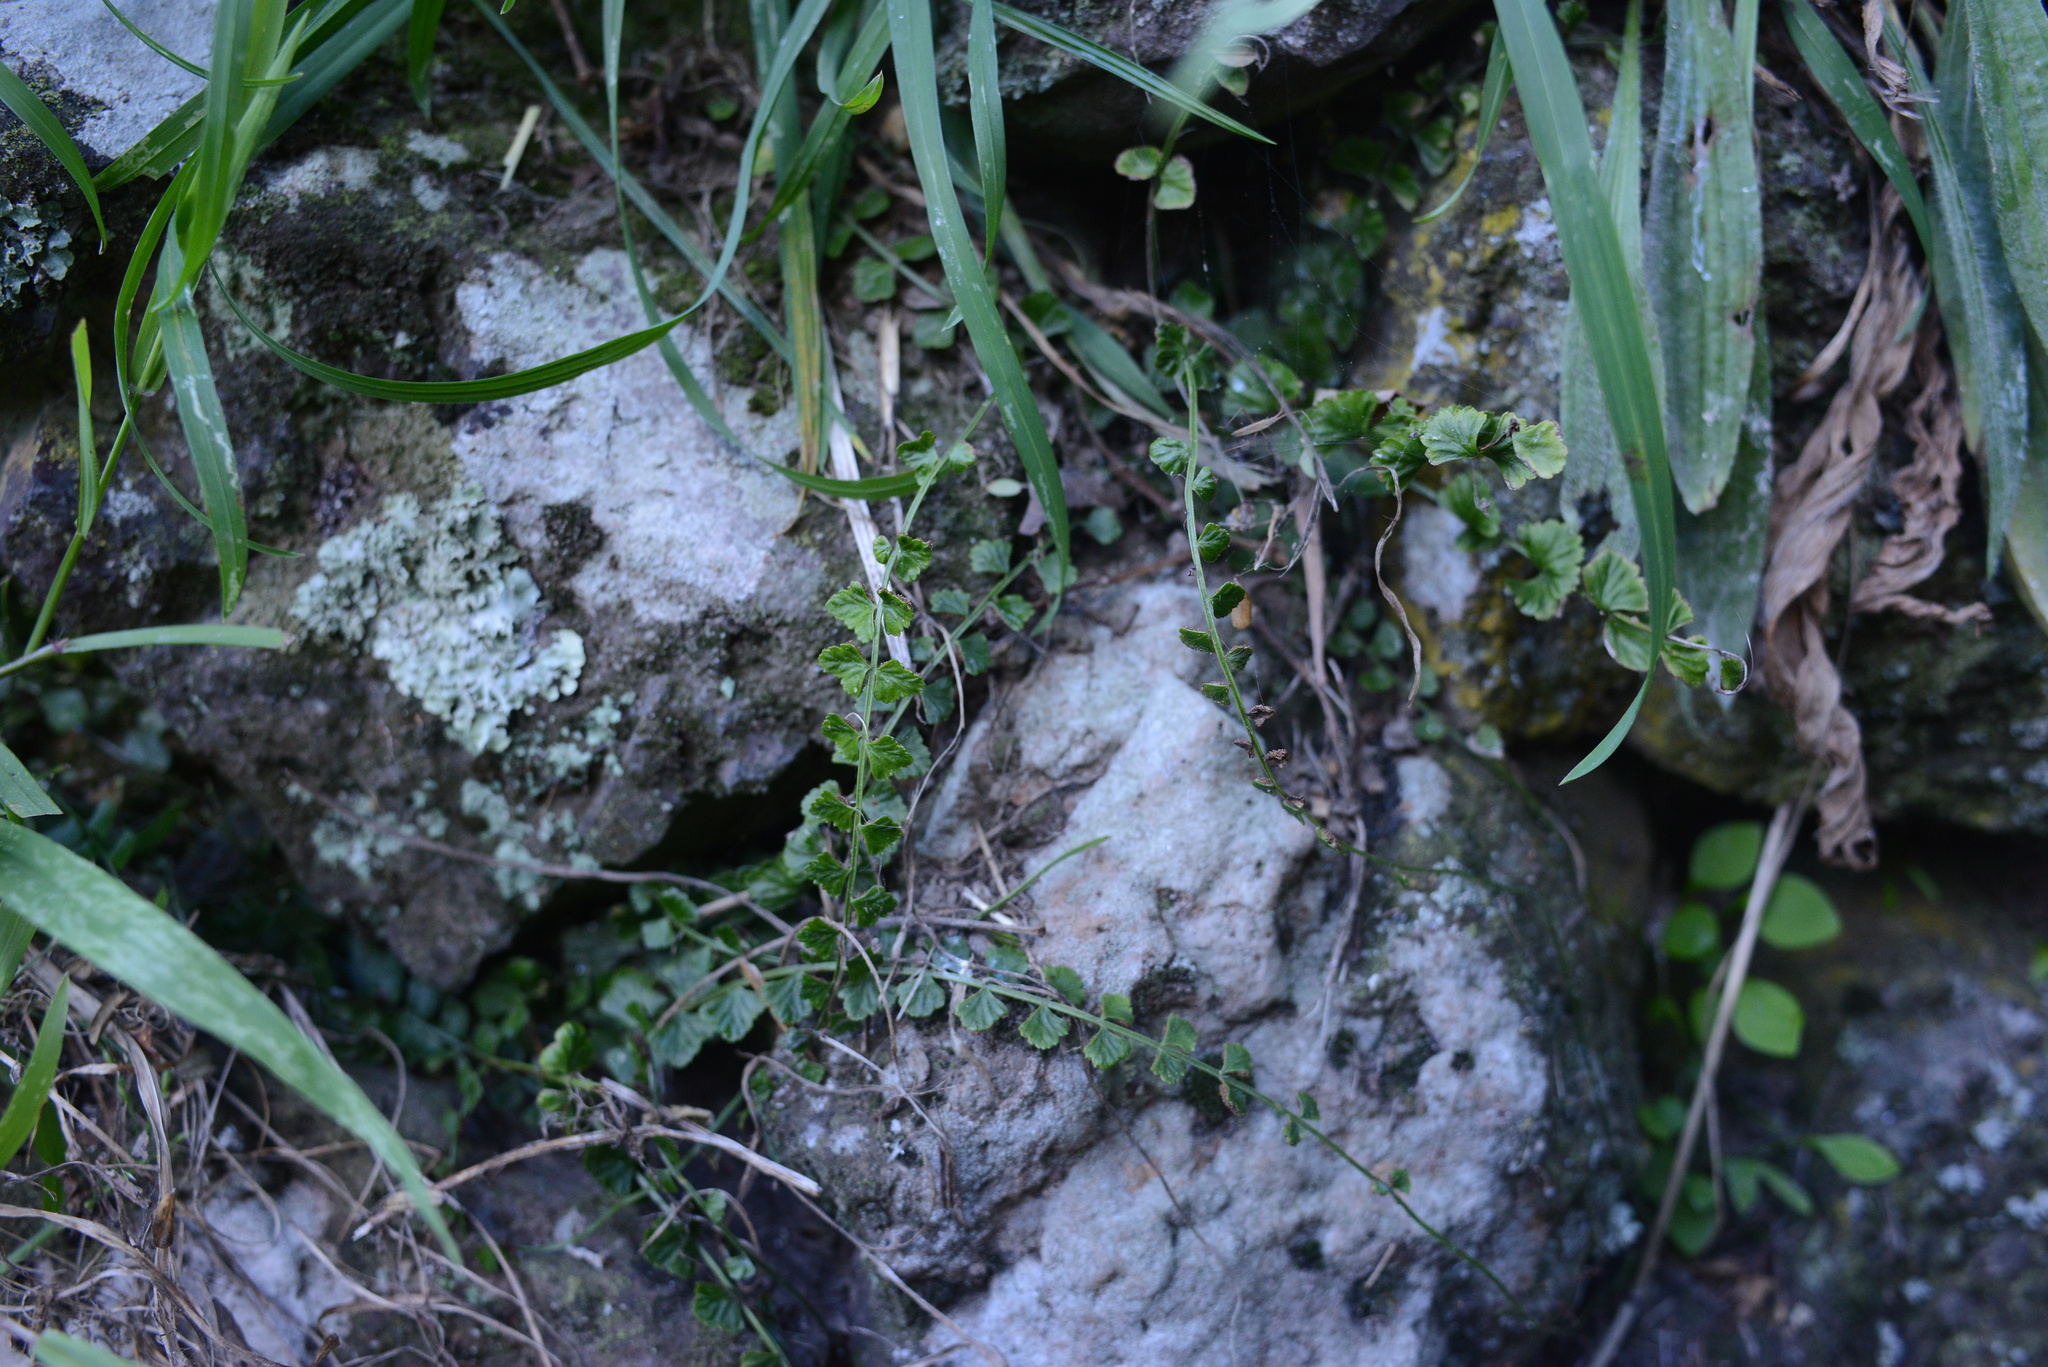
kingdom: Plantae
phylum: Tracheophyta
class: Polypodiopsida
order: Polypodiales
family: Aspleniaceae
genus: Asplenium
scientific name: Asplenium flabellifolium
